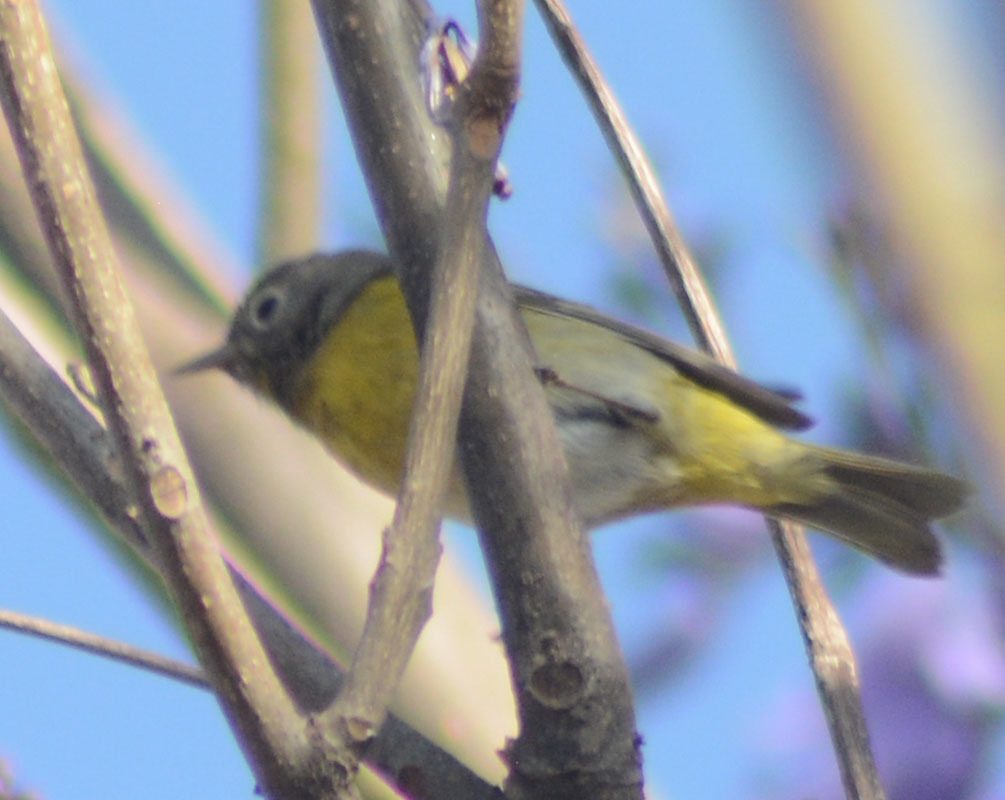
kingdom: Animalia
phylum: Chordata
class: Aves
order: Passeriformes
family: Parulidae
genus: Leiothlypis
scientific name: Leiothlypis ruficapilla
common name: Nashville warbler
